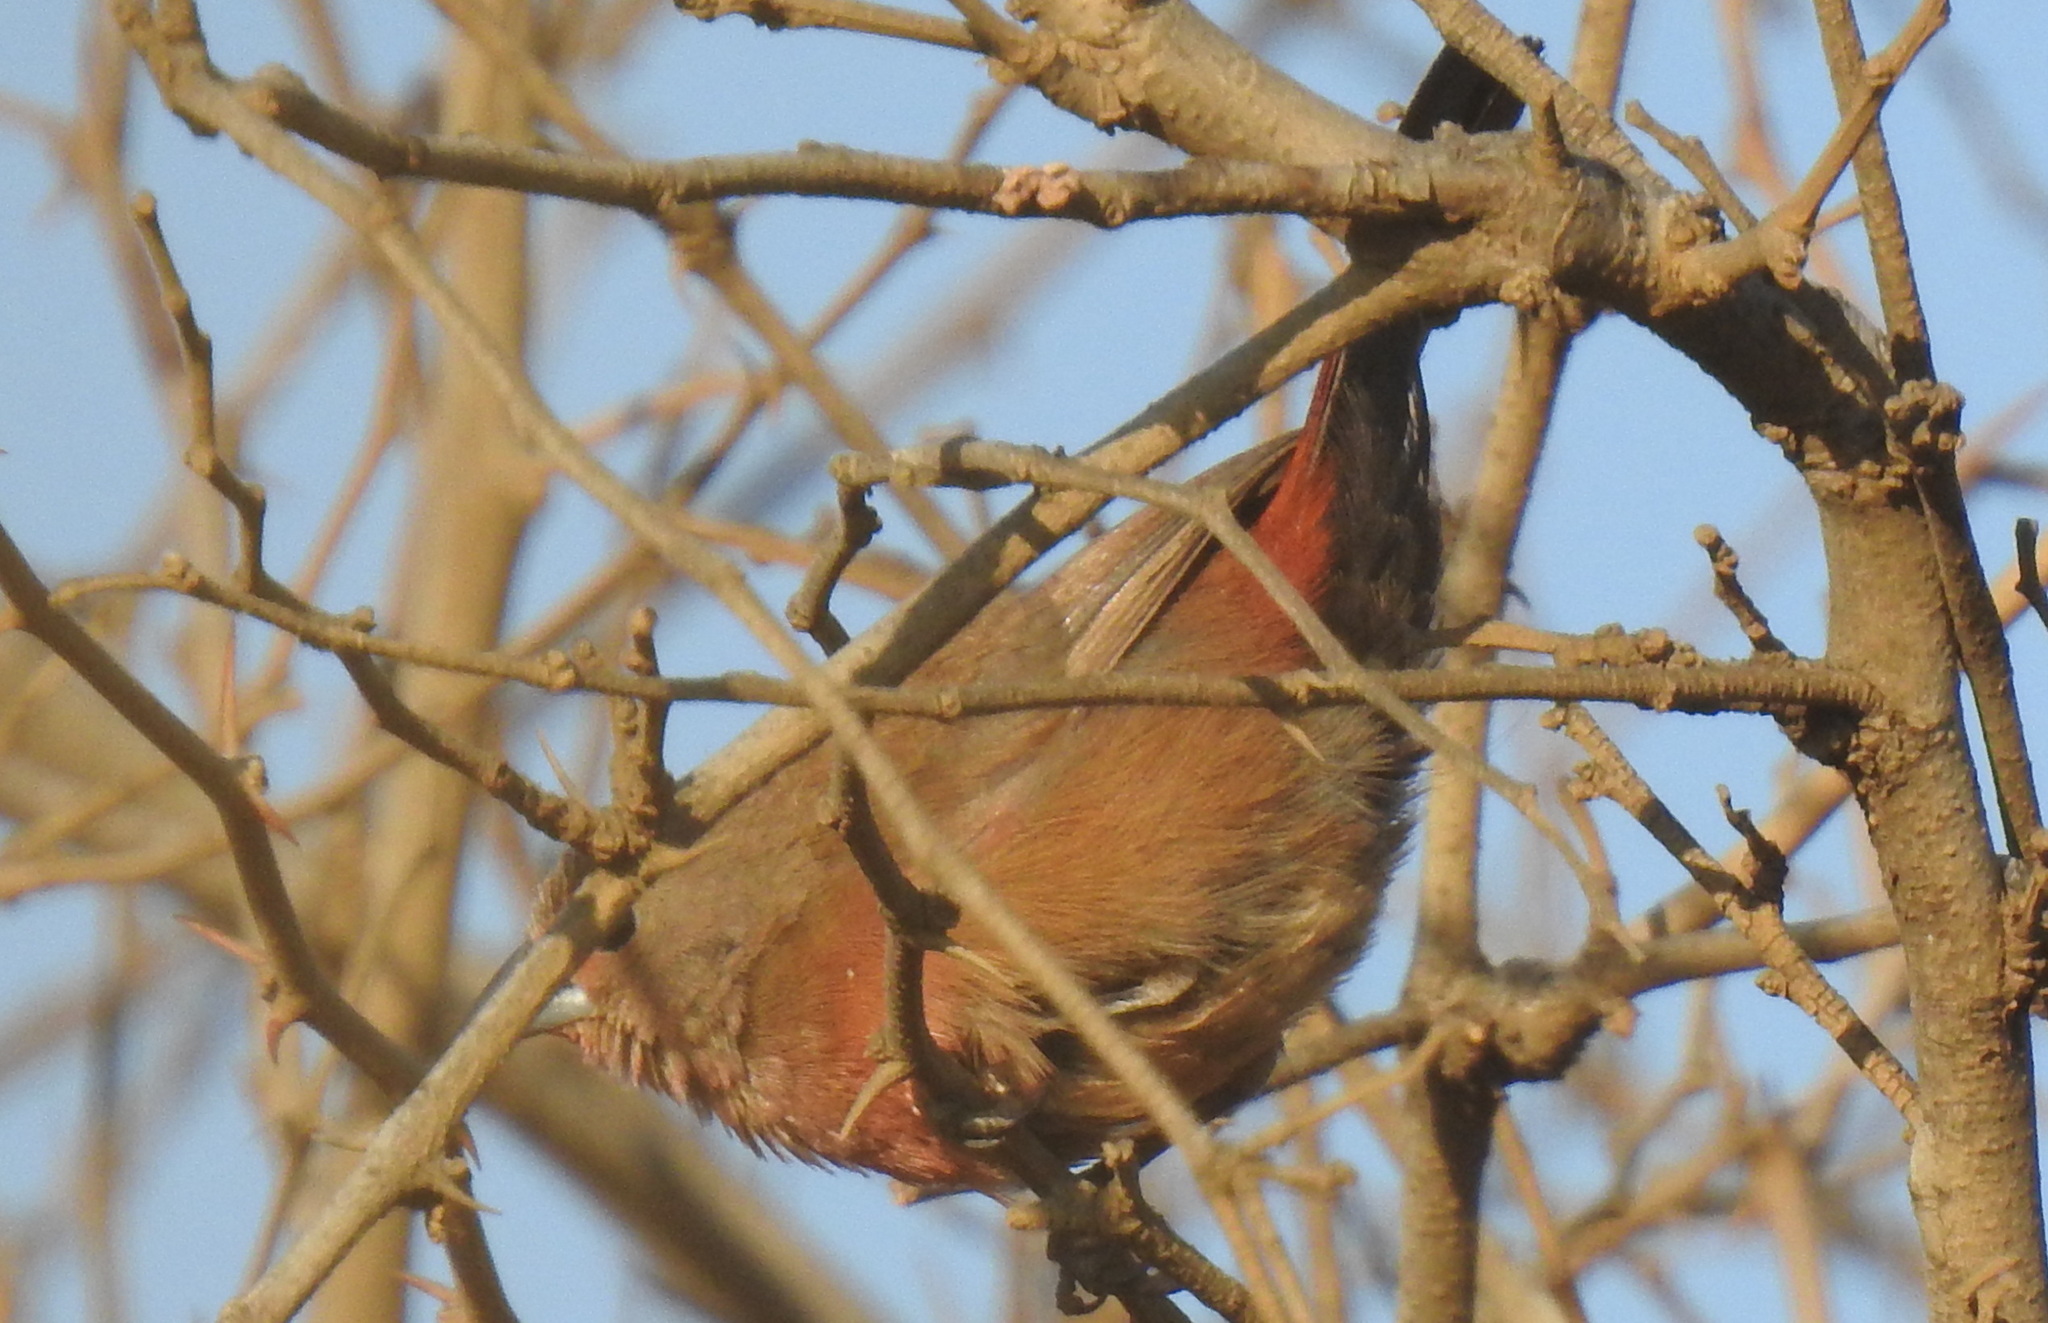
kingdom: Animalia
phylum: Chordata
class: Aves
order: Passeriformes
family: Estrildidae
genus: Lagonosticta
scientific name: Lagonosticta rhodopareia
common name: Jameson's firefinch
